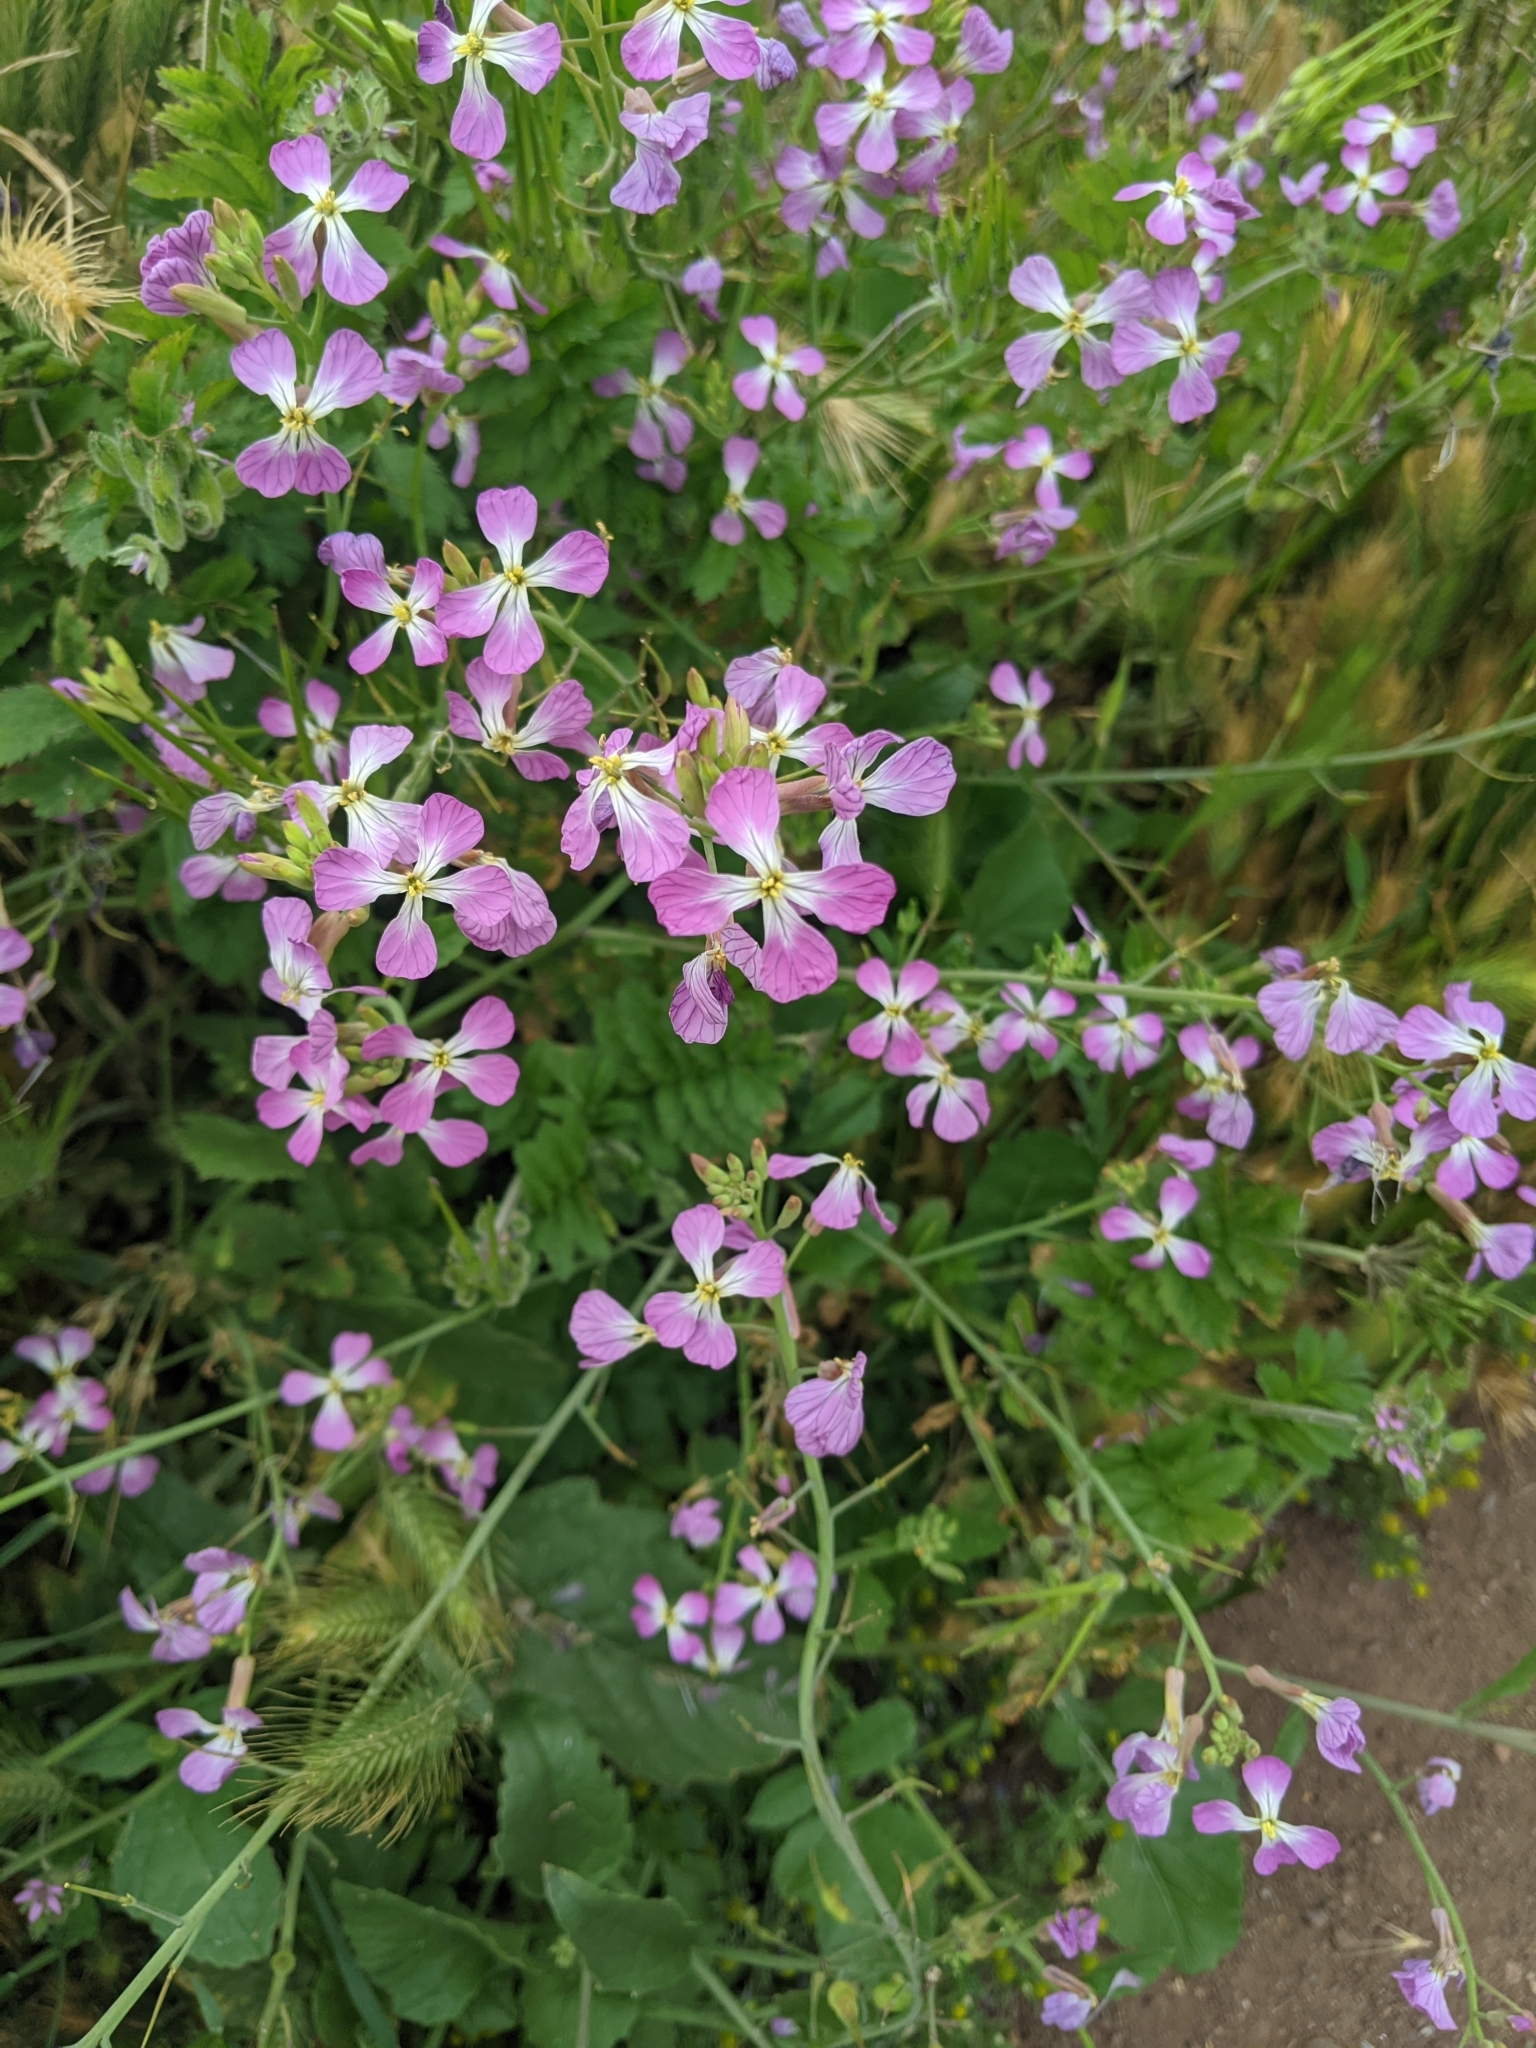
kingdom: Plantae
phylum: Tracheophyta
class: Magnoliopsida
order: Brassicales
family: Brassicaceae
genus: Raphanus
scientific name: Raphanus sativus
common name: Cultivated radish
